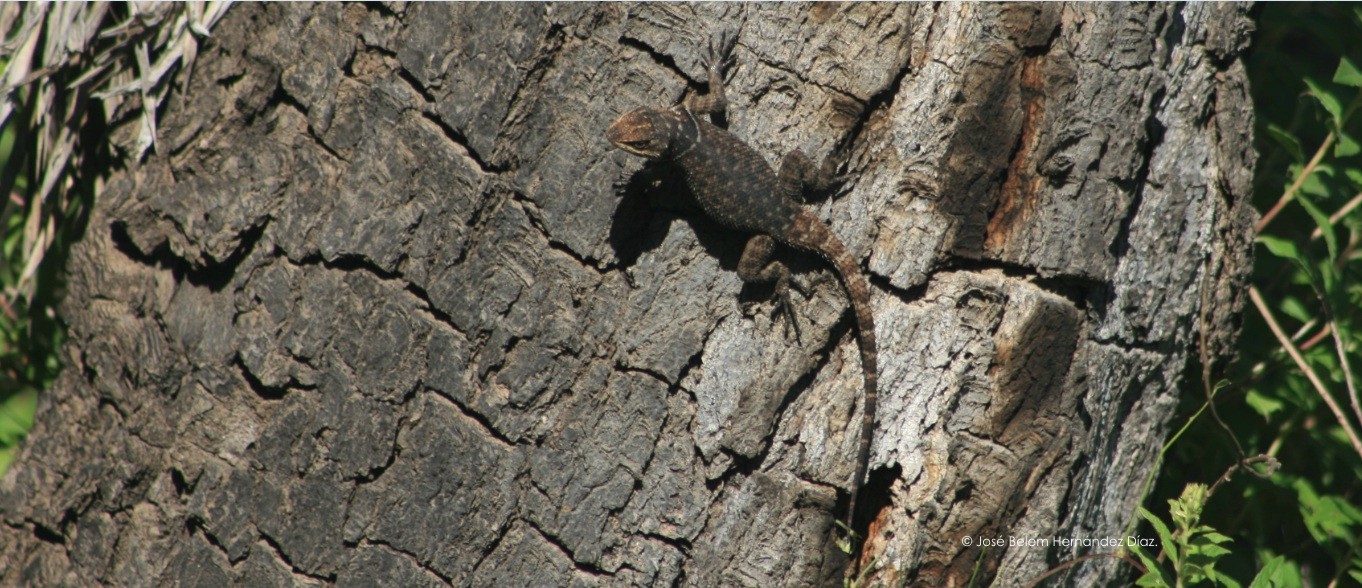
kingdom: Animalia
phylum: Chordata
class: Squamata
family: Phrynosomatidae
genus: Sceloporus
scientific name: Sceloporus minor
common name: Minor lizard
